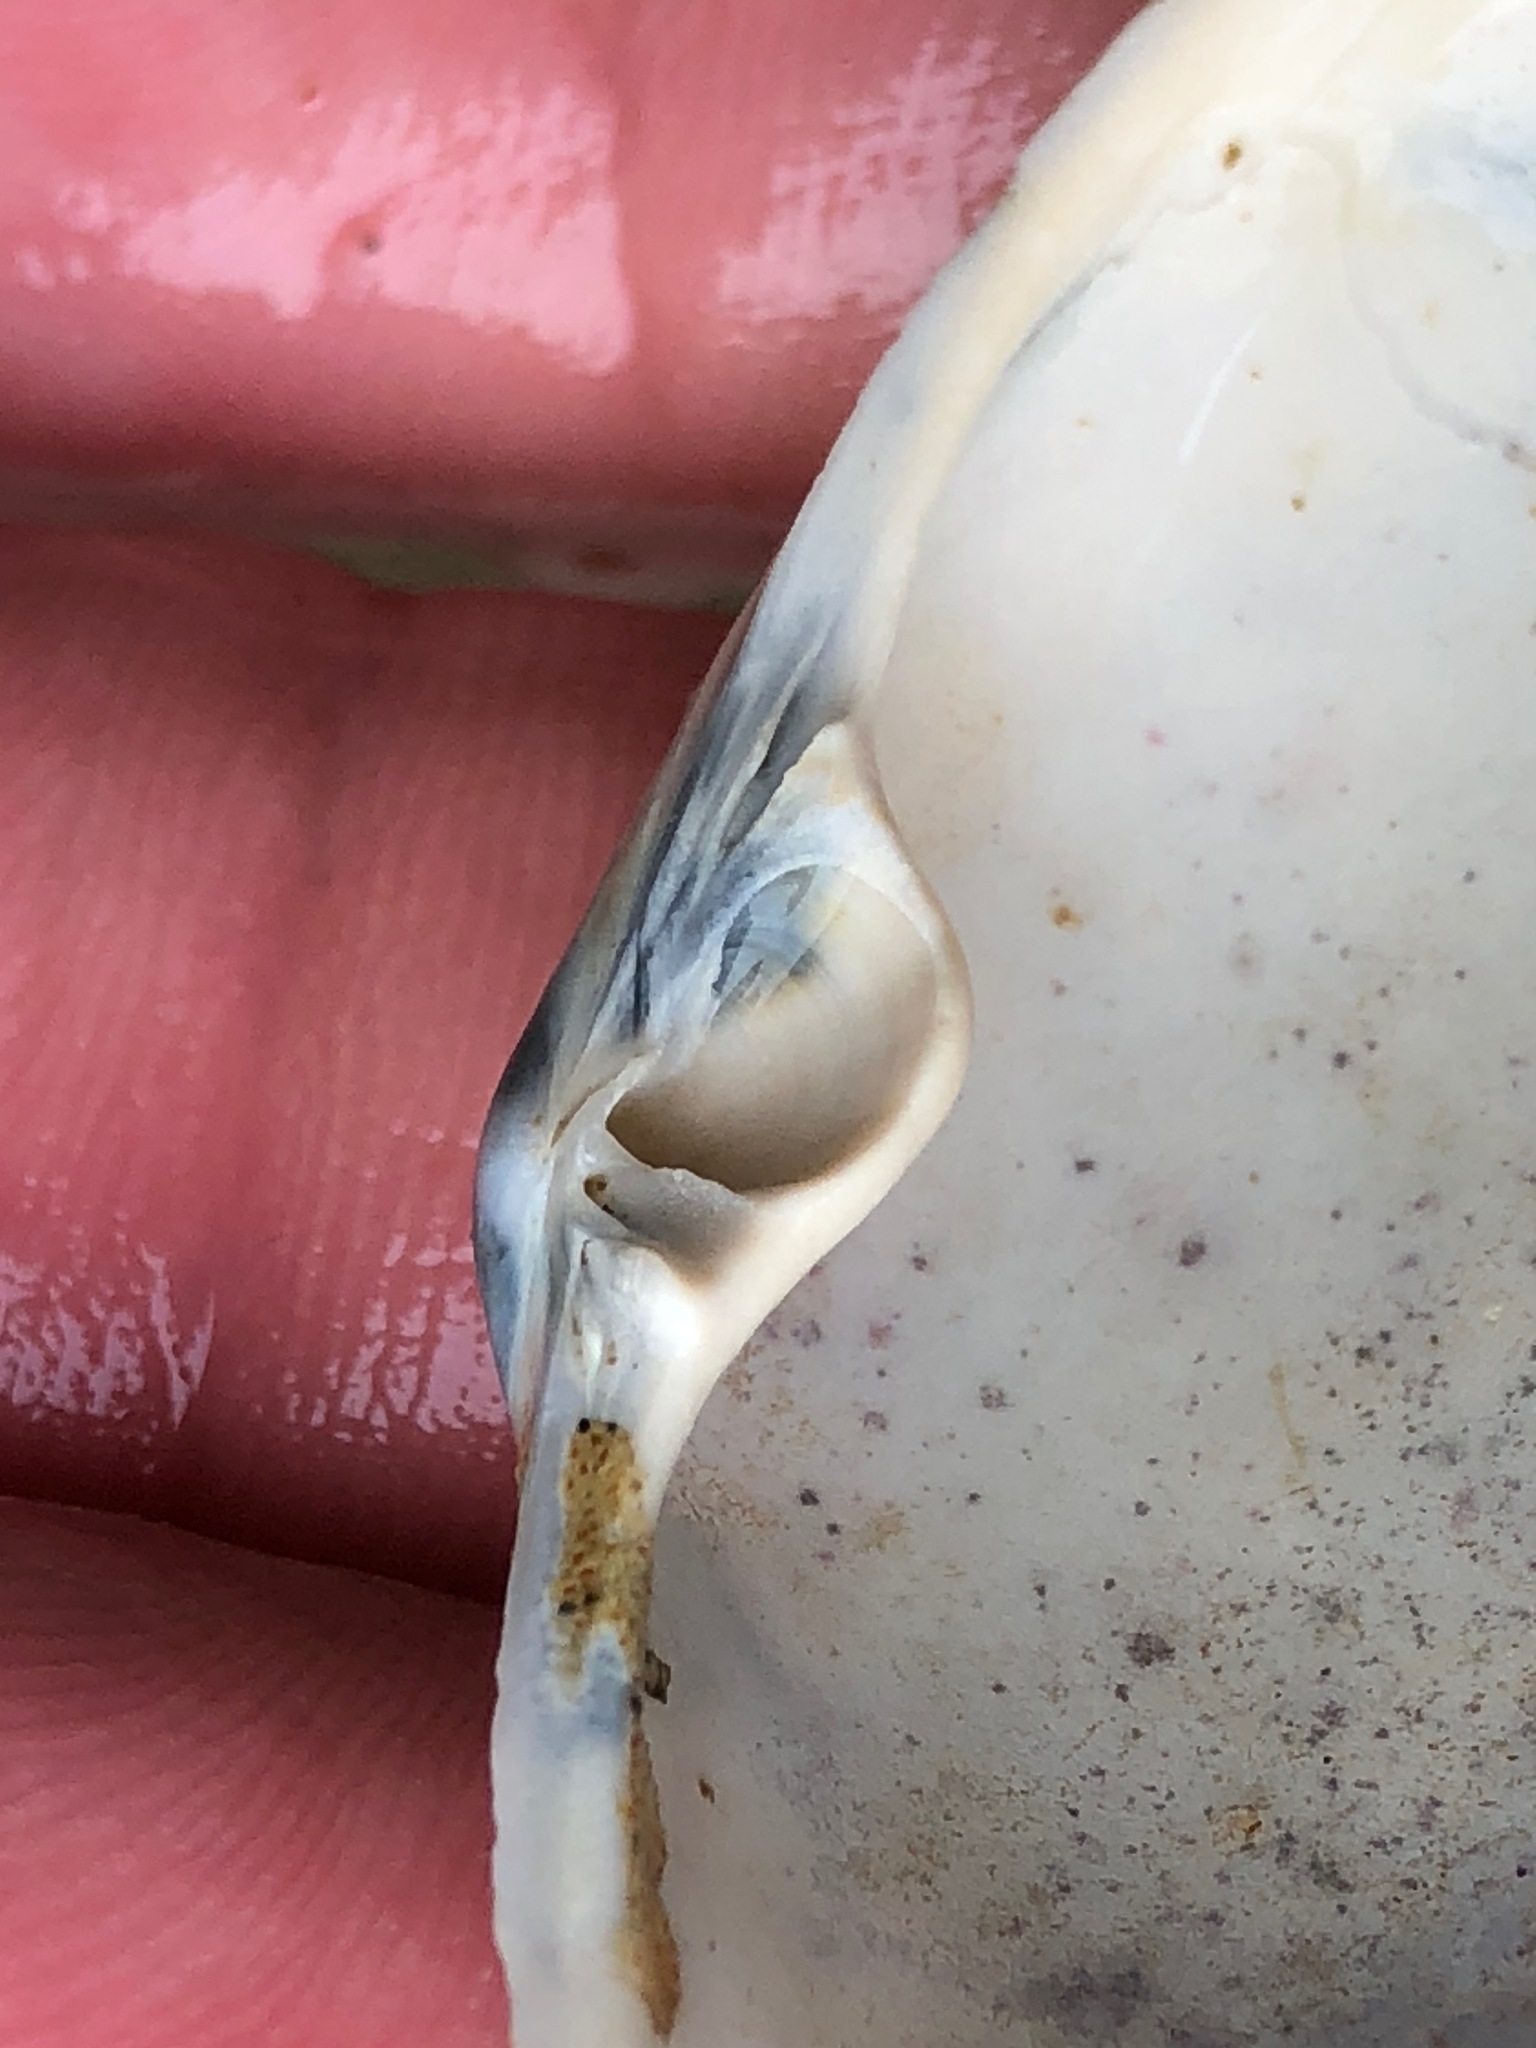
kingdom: Animalia
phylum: Mollusca
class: Bivalvia
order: Venerida
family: Mactridae
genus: Tresus
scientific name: Tresus nuttallii
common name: Pacific gaper clam
